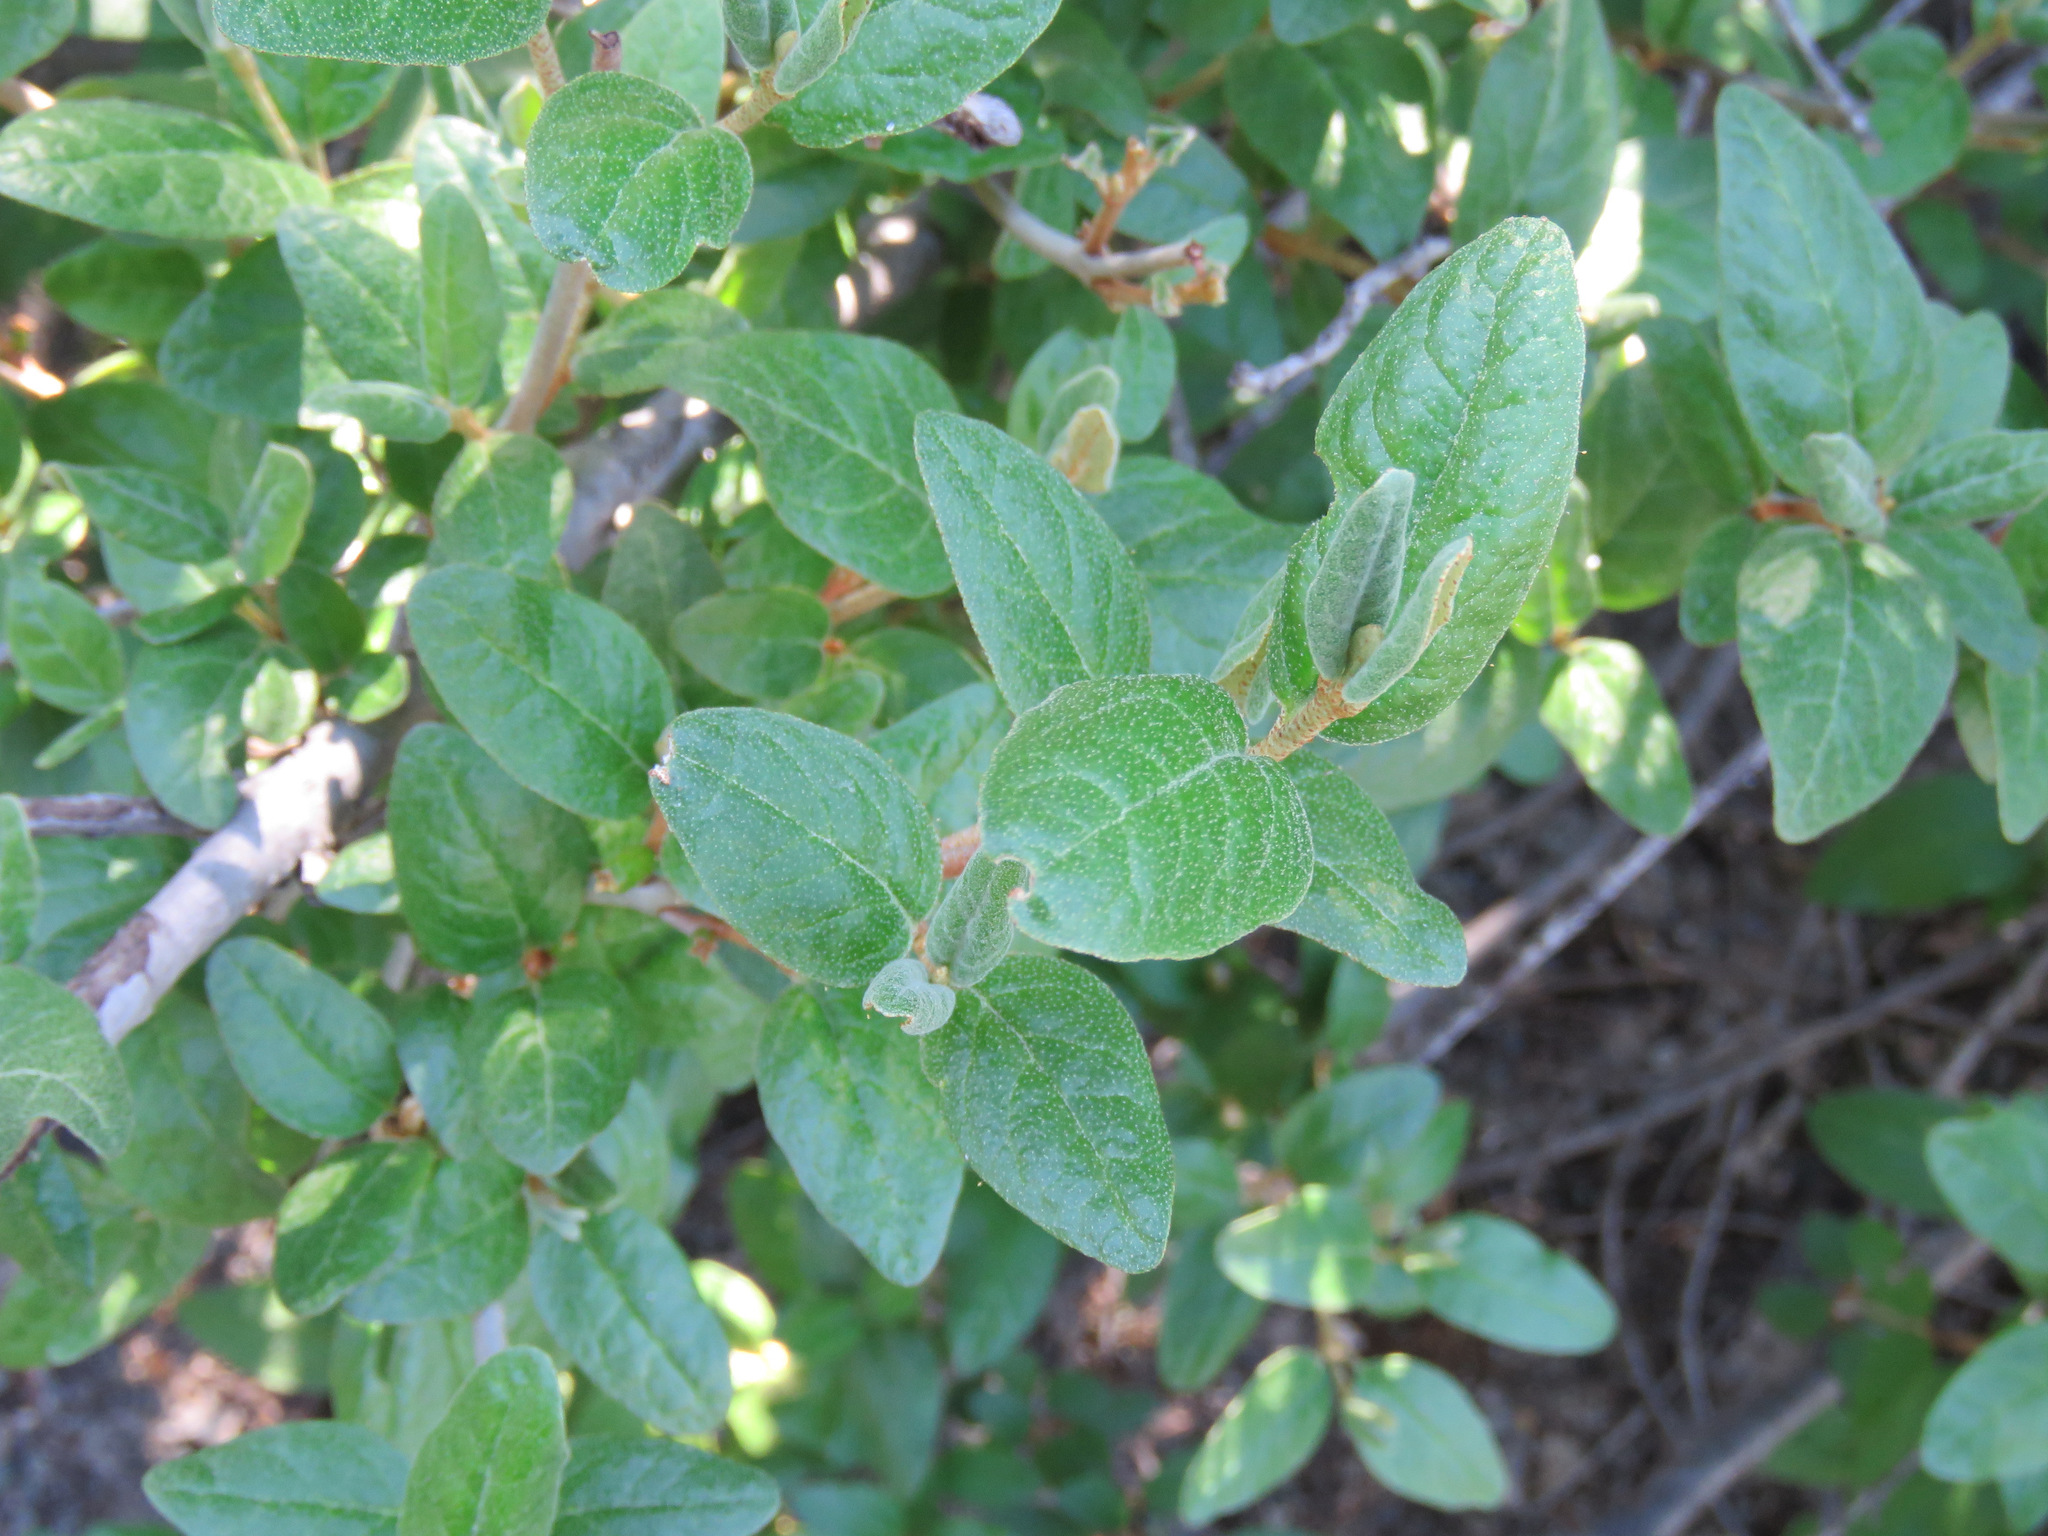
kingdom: Plantae
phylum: Tracheophyta
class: Magnoliopsida
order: Rosales
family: Elaeagnaceae
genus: Shepherdia
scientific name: Shepherdia canadensis
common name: Soapberry
